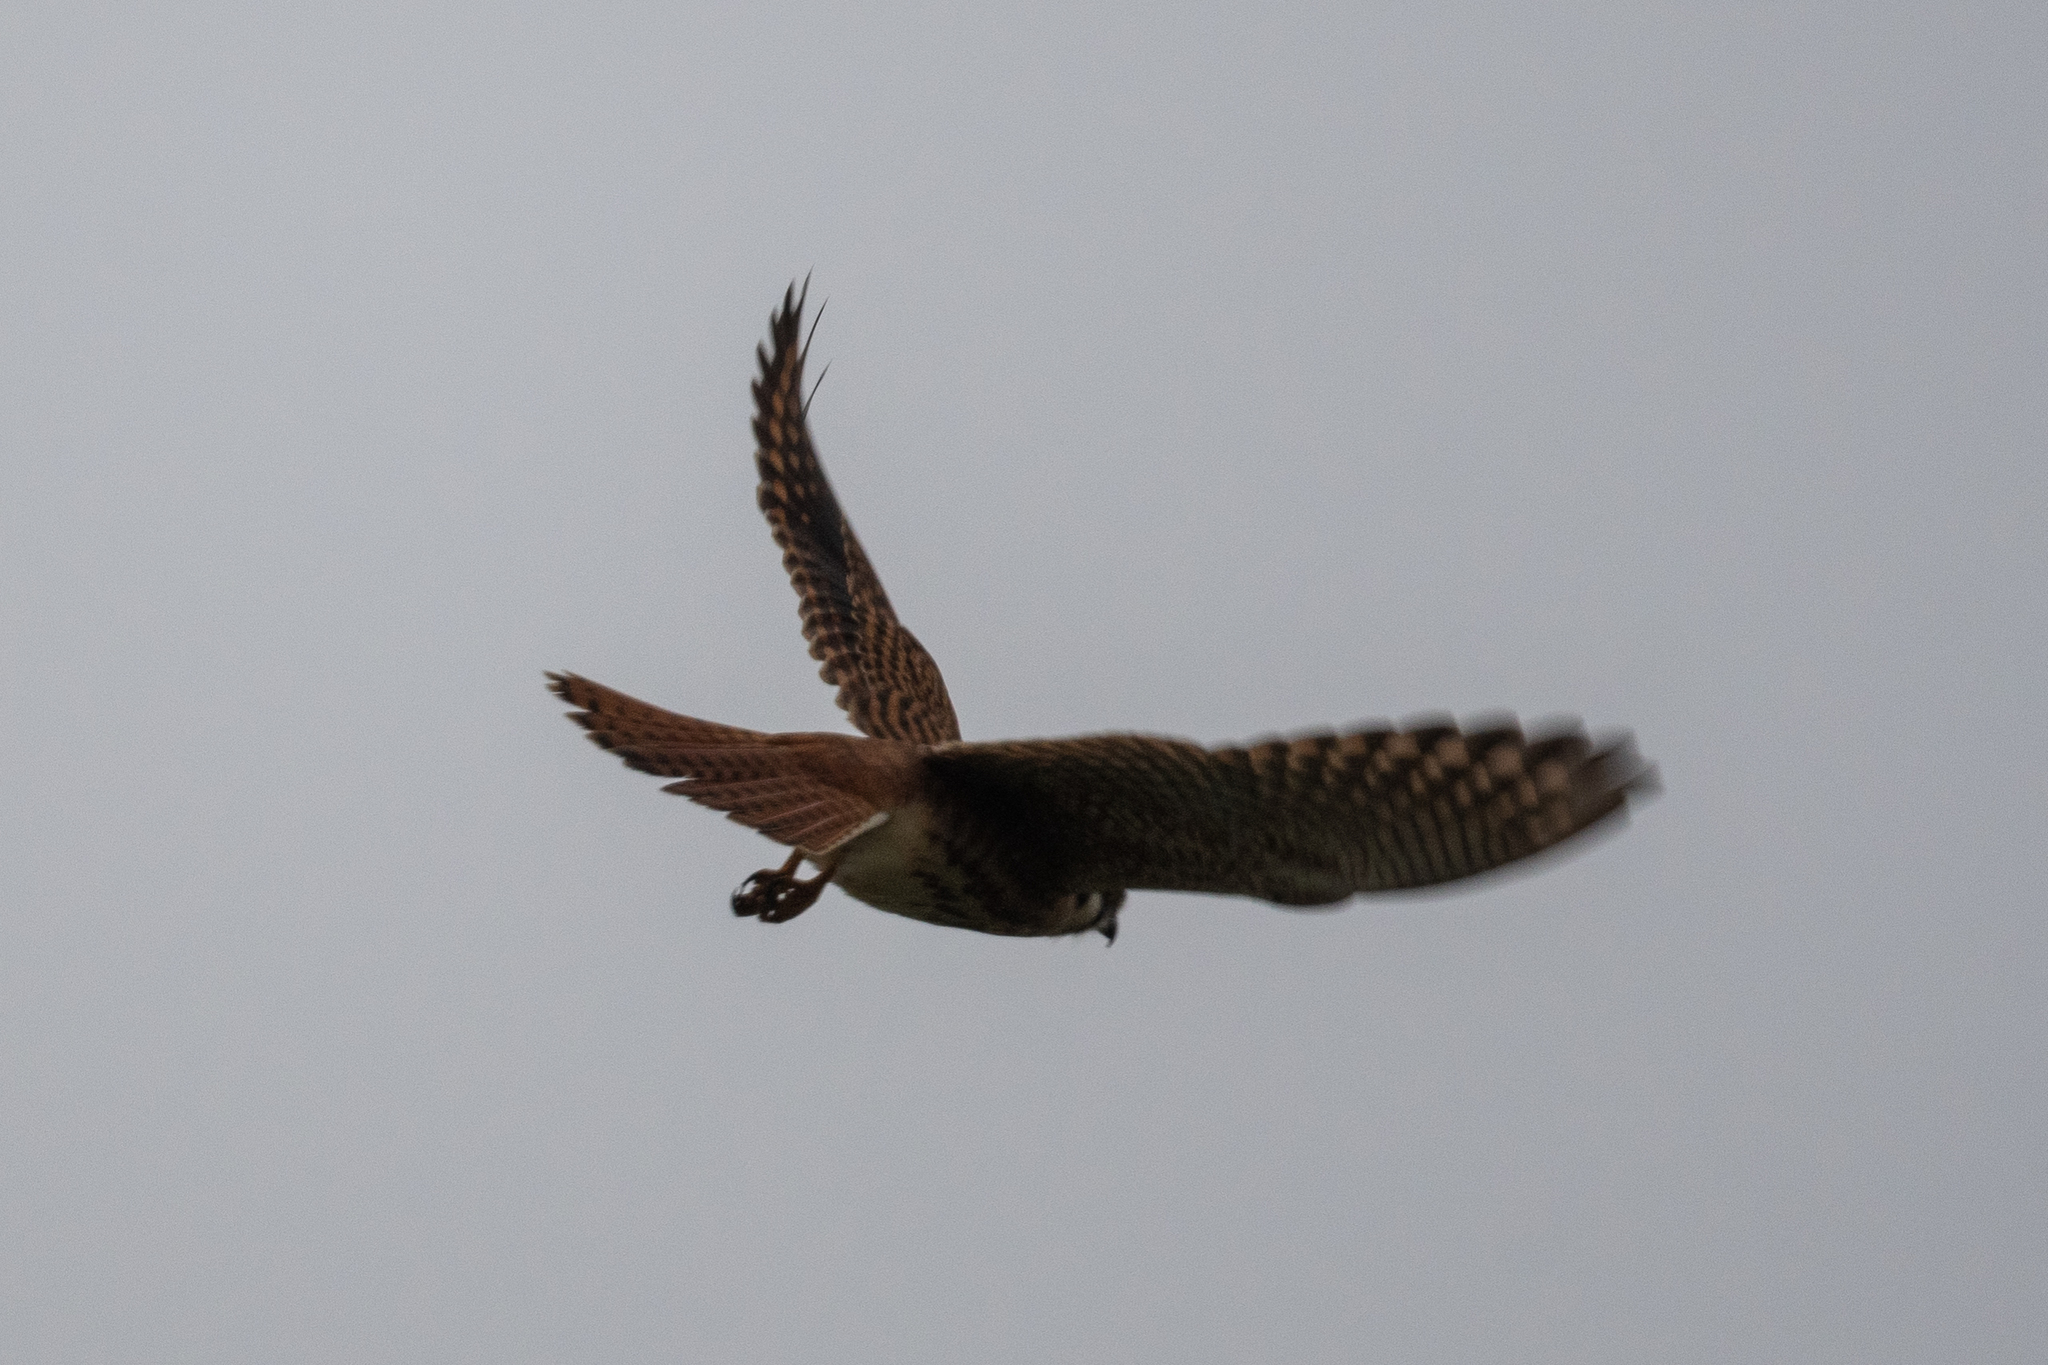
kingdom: Animalia
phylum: Chordata
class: Aves
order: Falconiformes
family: Falconidae
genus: Falco
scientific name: Falco sparverius
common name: American kestrel
